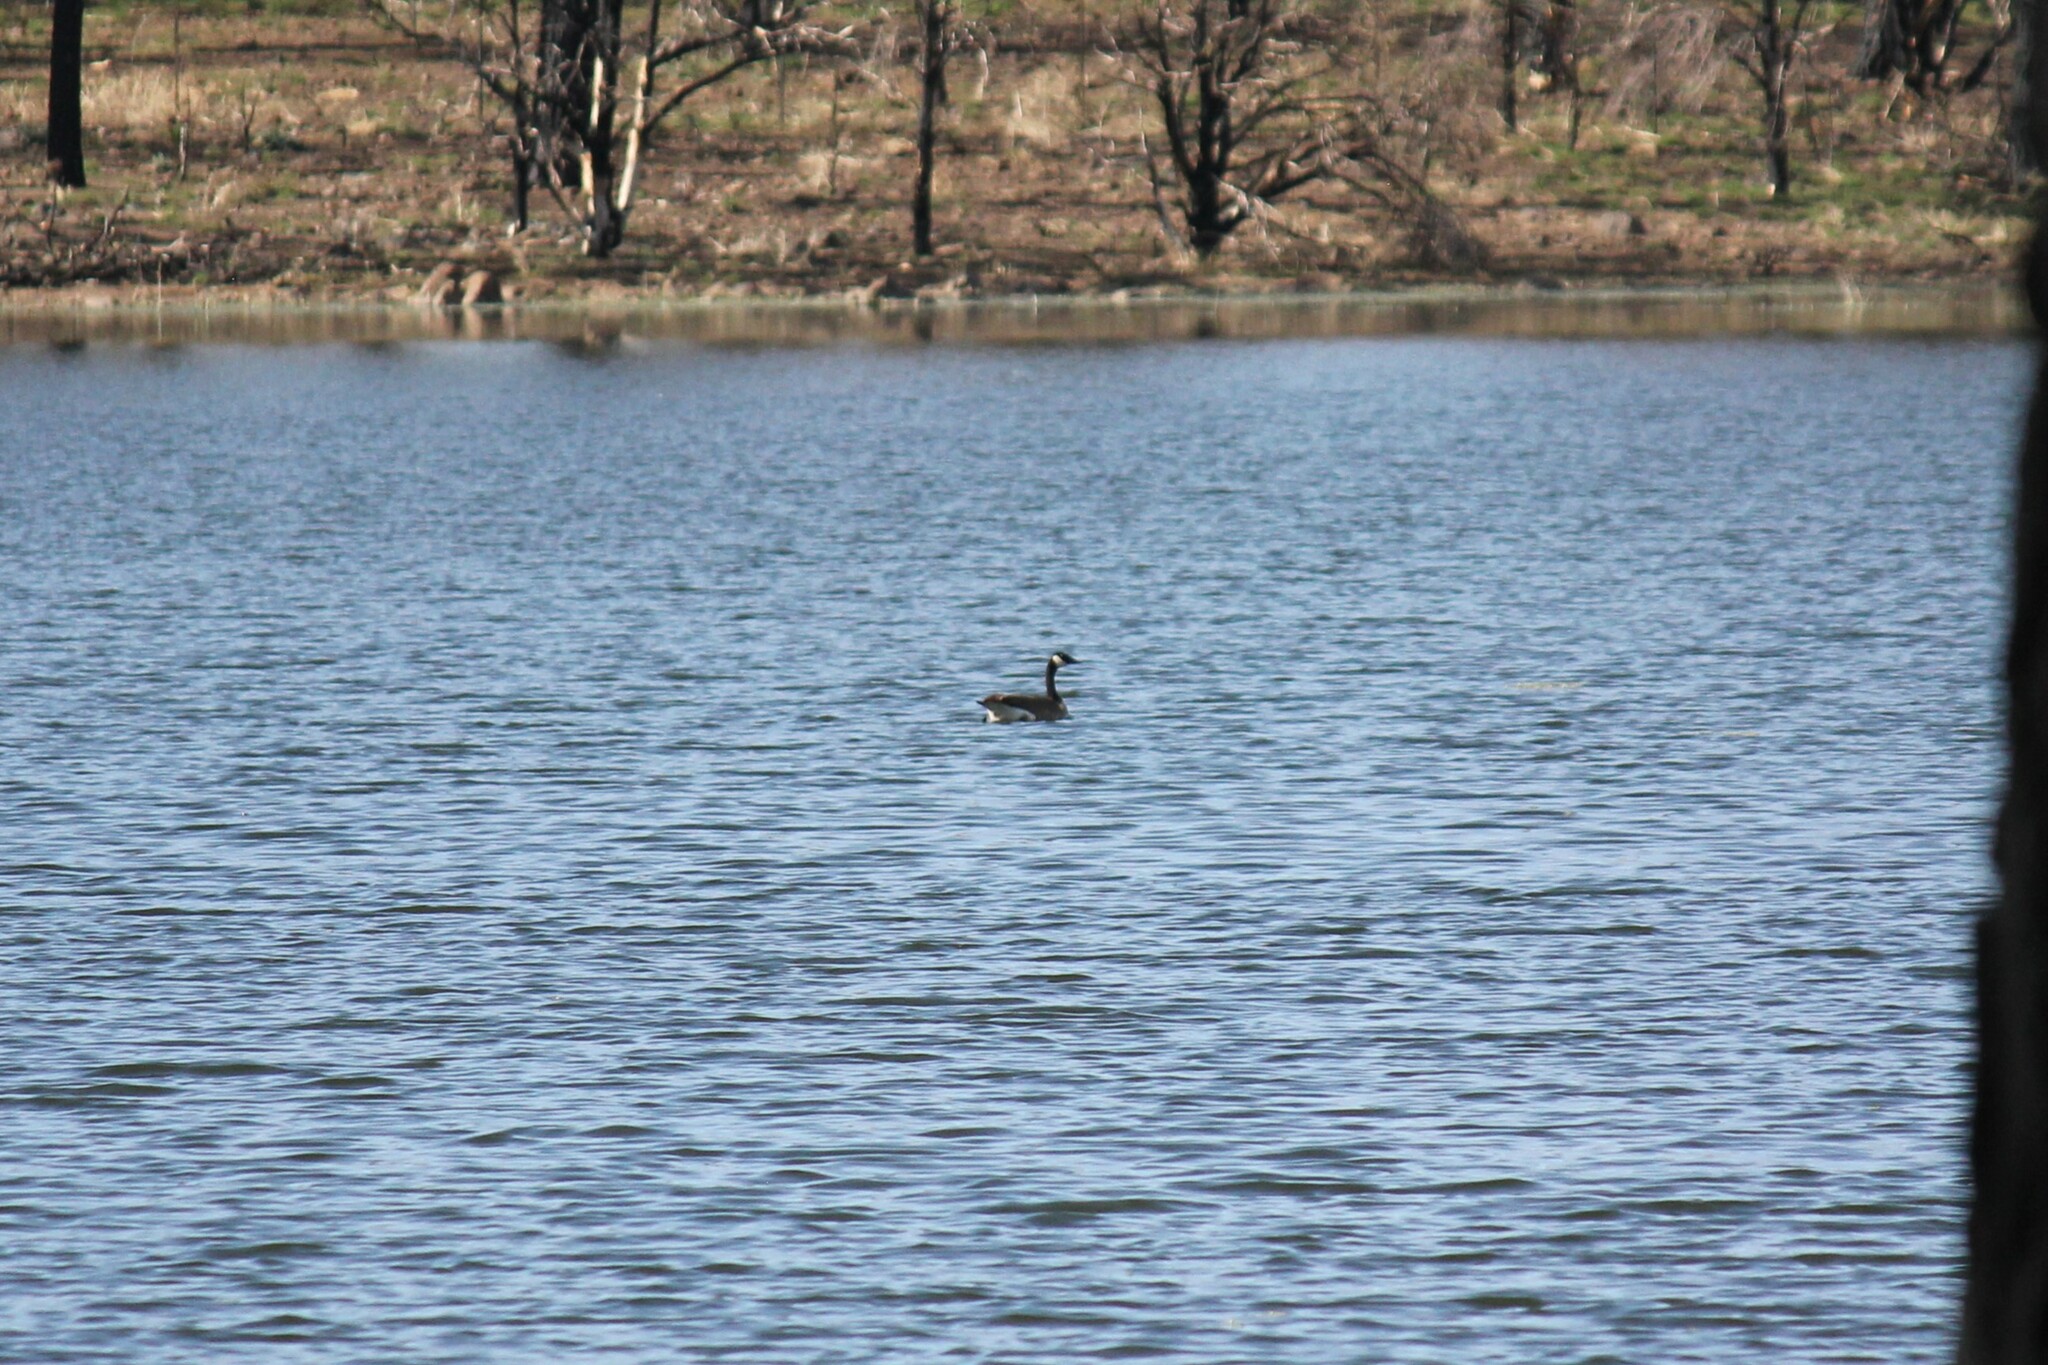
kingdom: Animalia
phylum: Chordata
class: Aves
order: Anseriformes
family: Anatidae
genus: Branta
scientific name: Branta canadensis
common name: Canada goose
